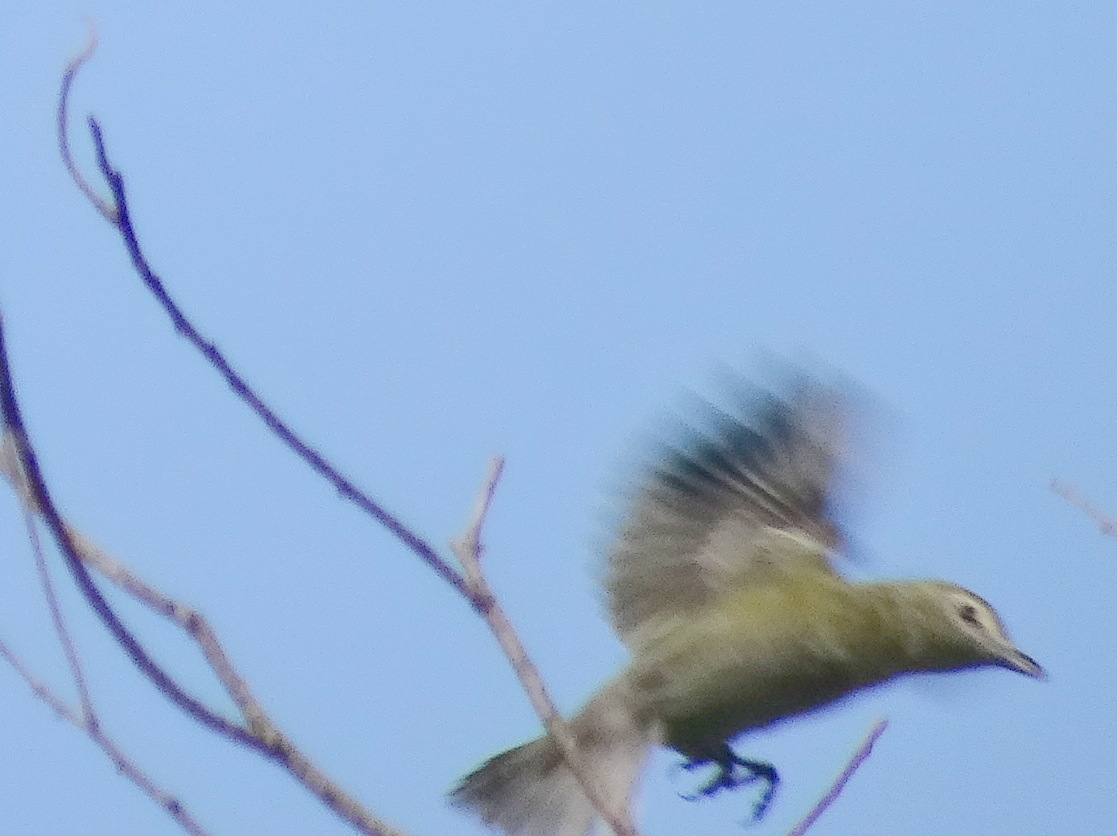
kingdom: Animalia
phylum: Chordata
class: Aves
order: Passeriformes
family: Vireonidae
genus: Vireo
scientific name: Vireo flavifrons
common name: Yellow-throated vireo
